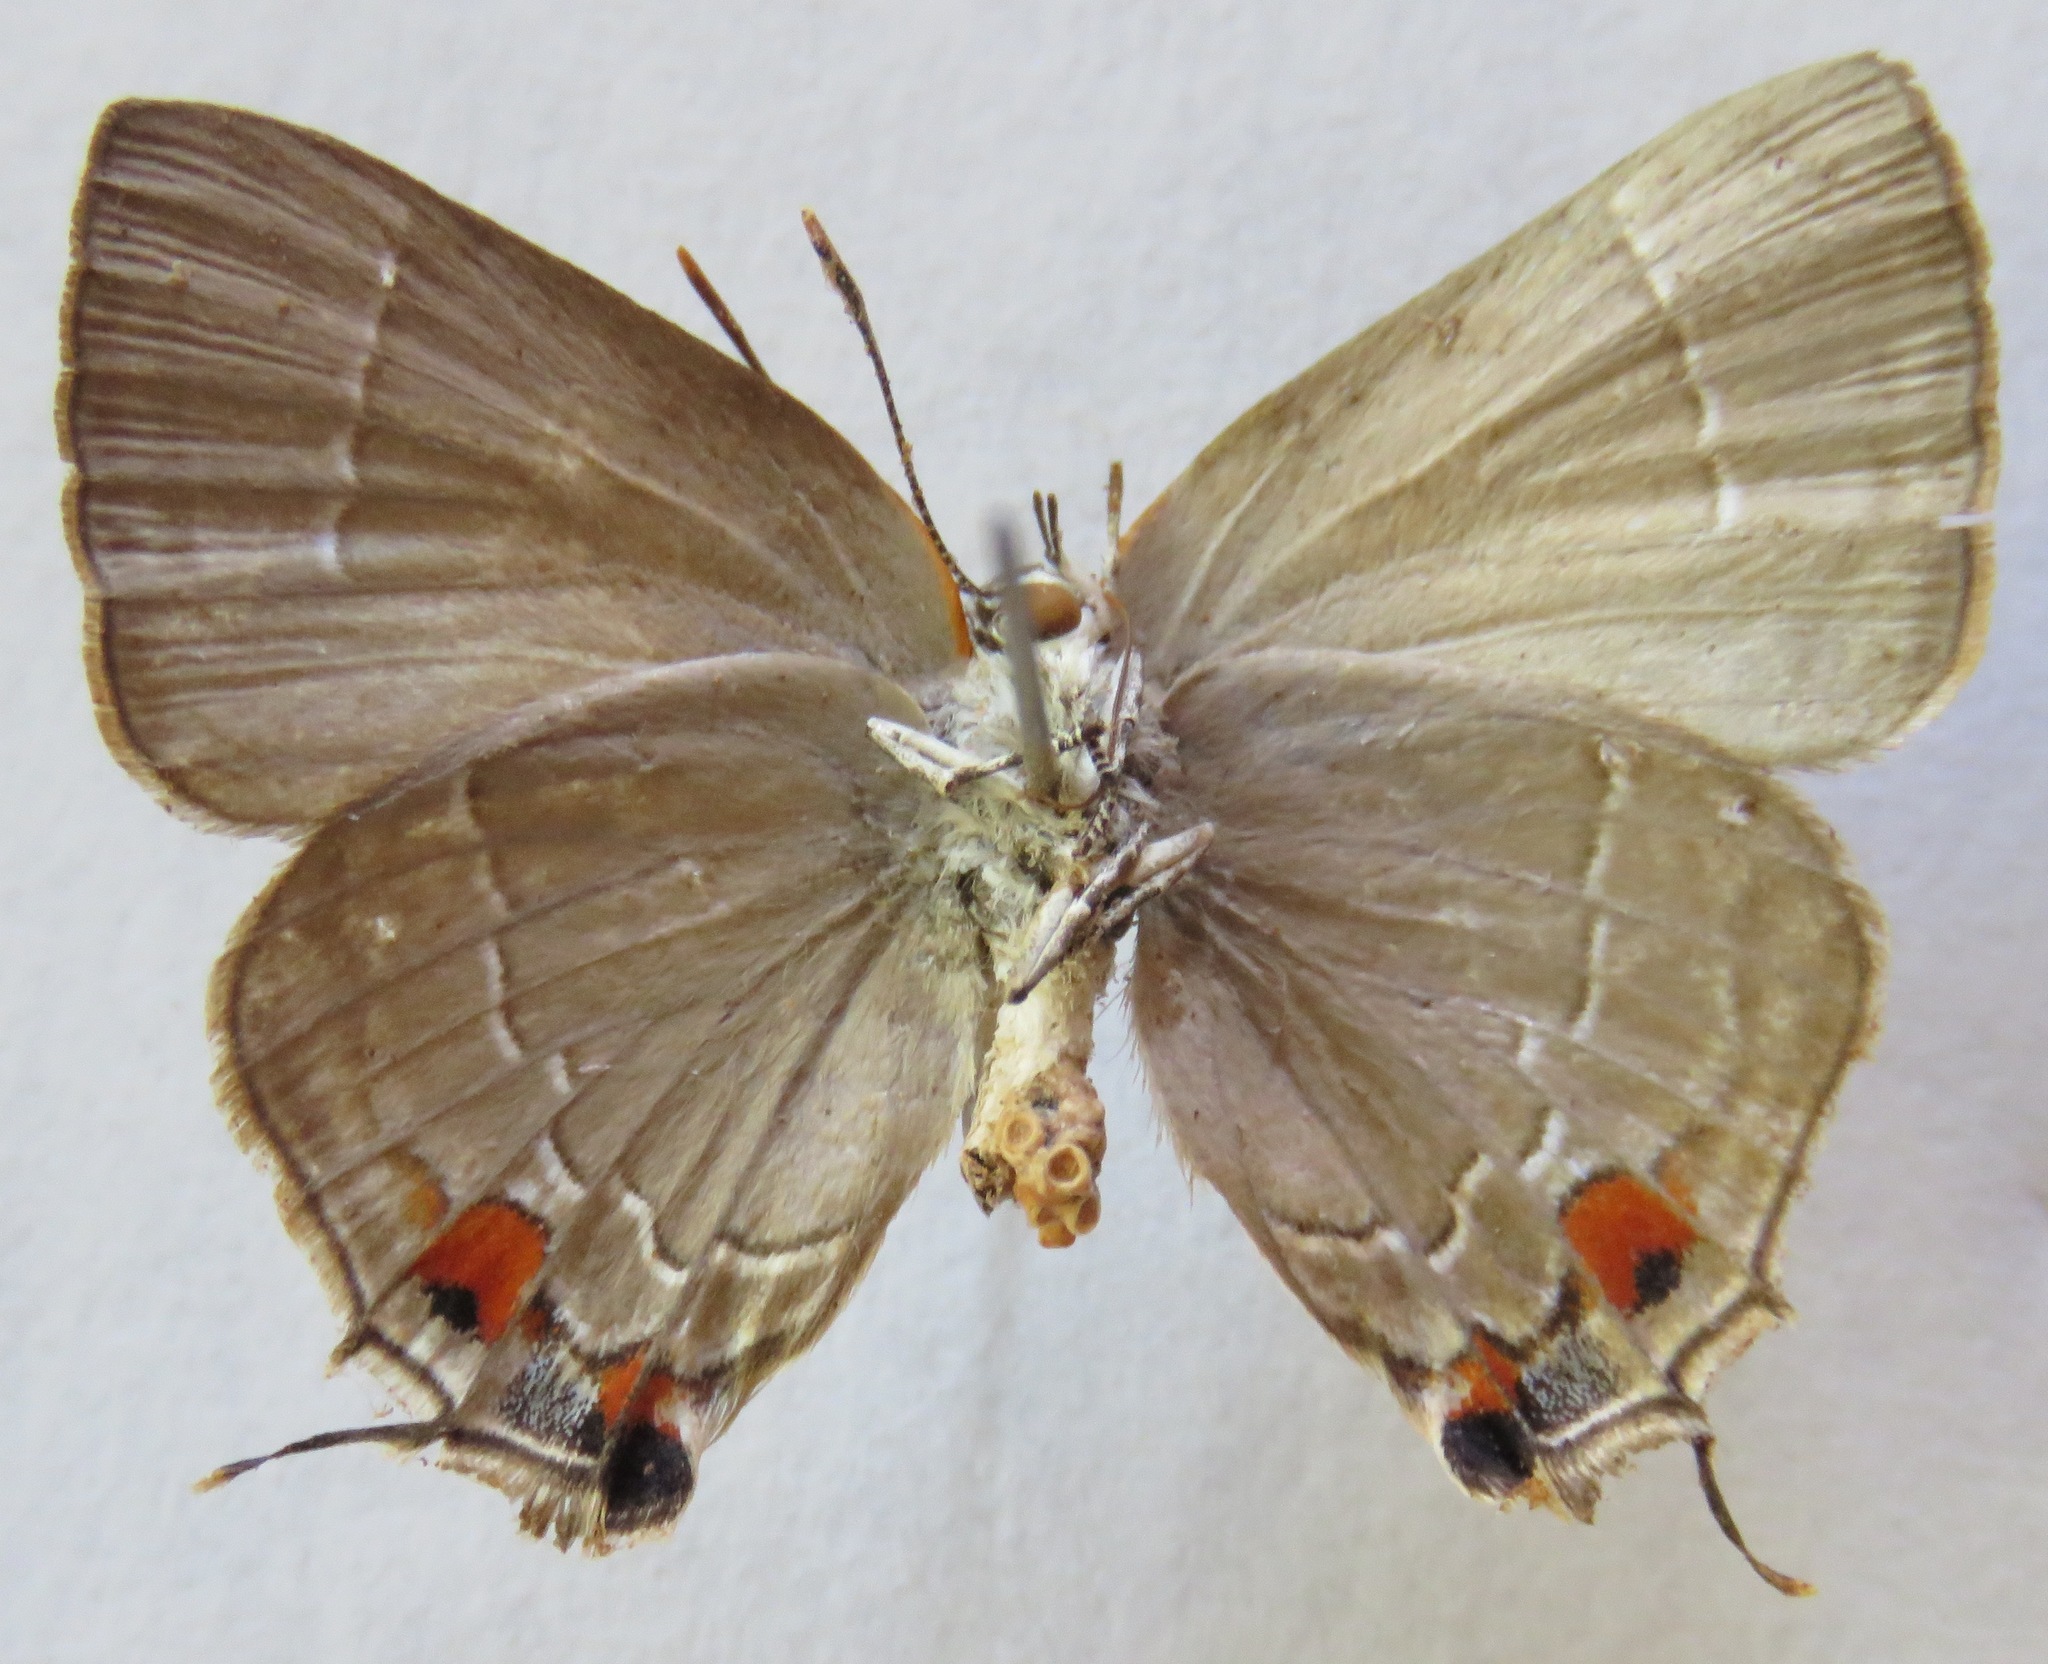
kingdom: Animalia
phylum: Arthropoda
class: Insecta
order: Lepidoptera
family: Lycaenidae
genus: Thecla
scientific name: Thecla marius
